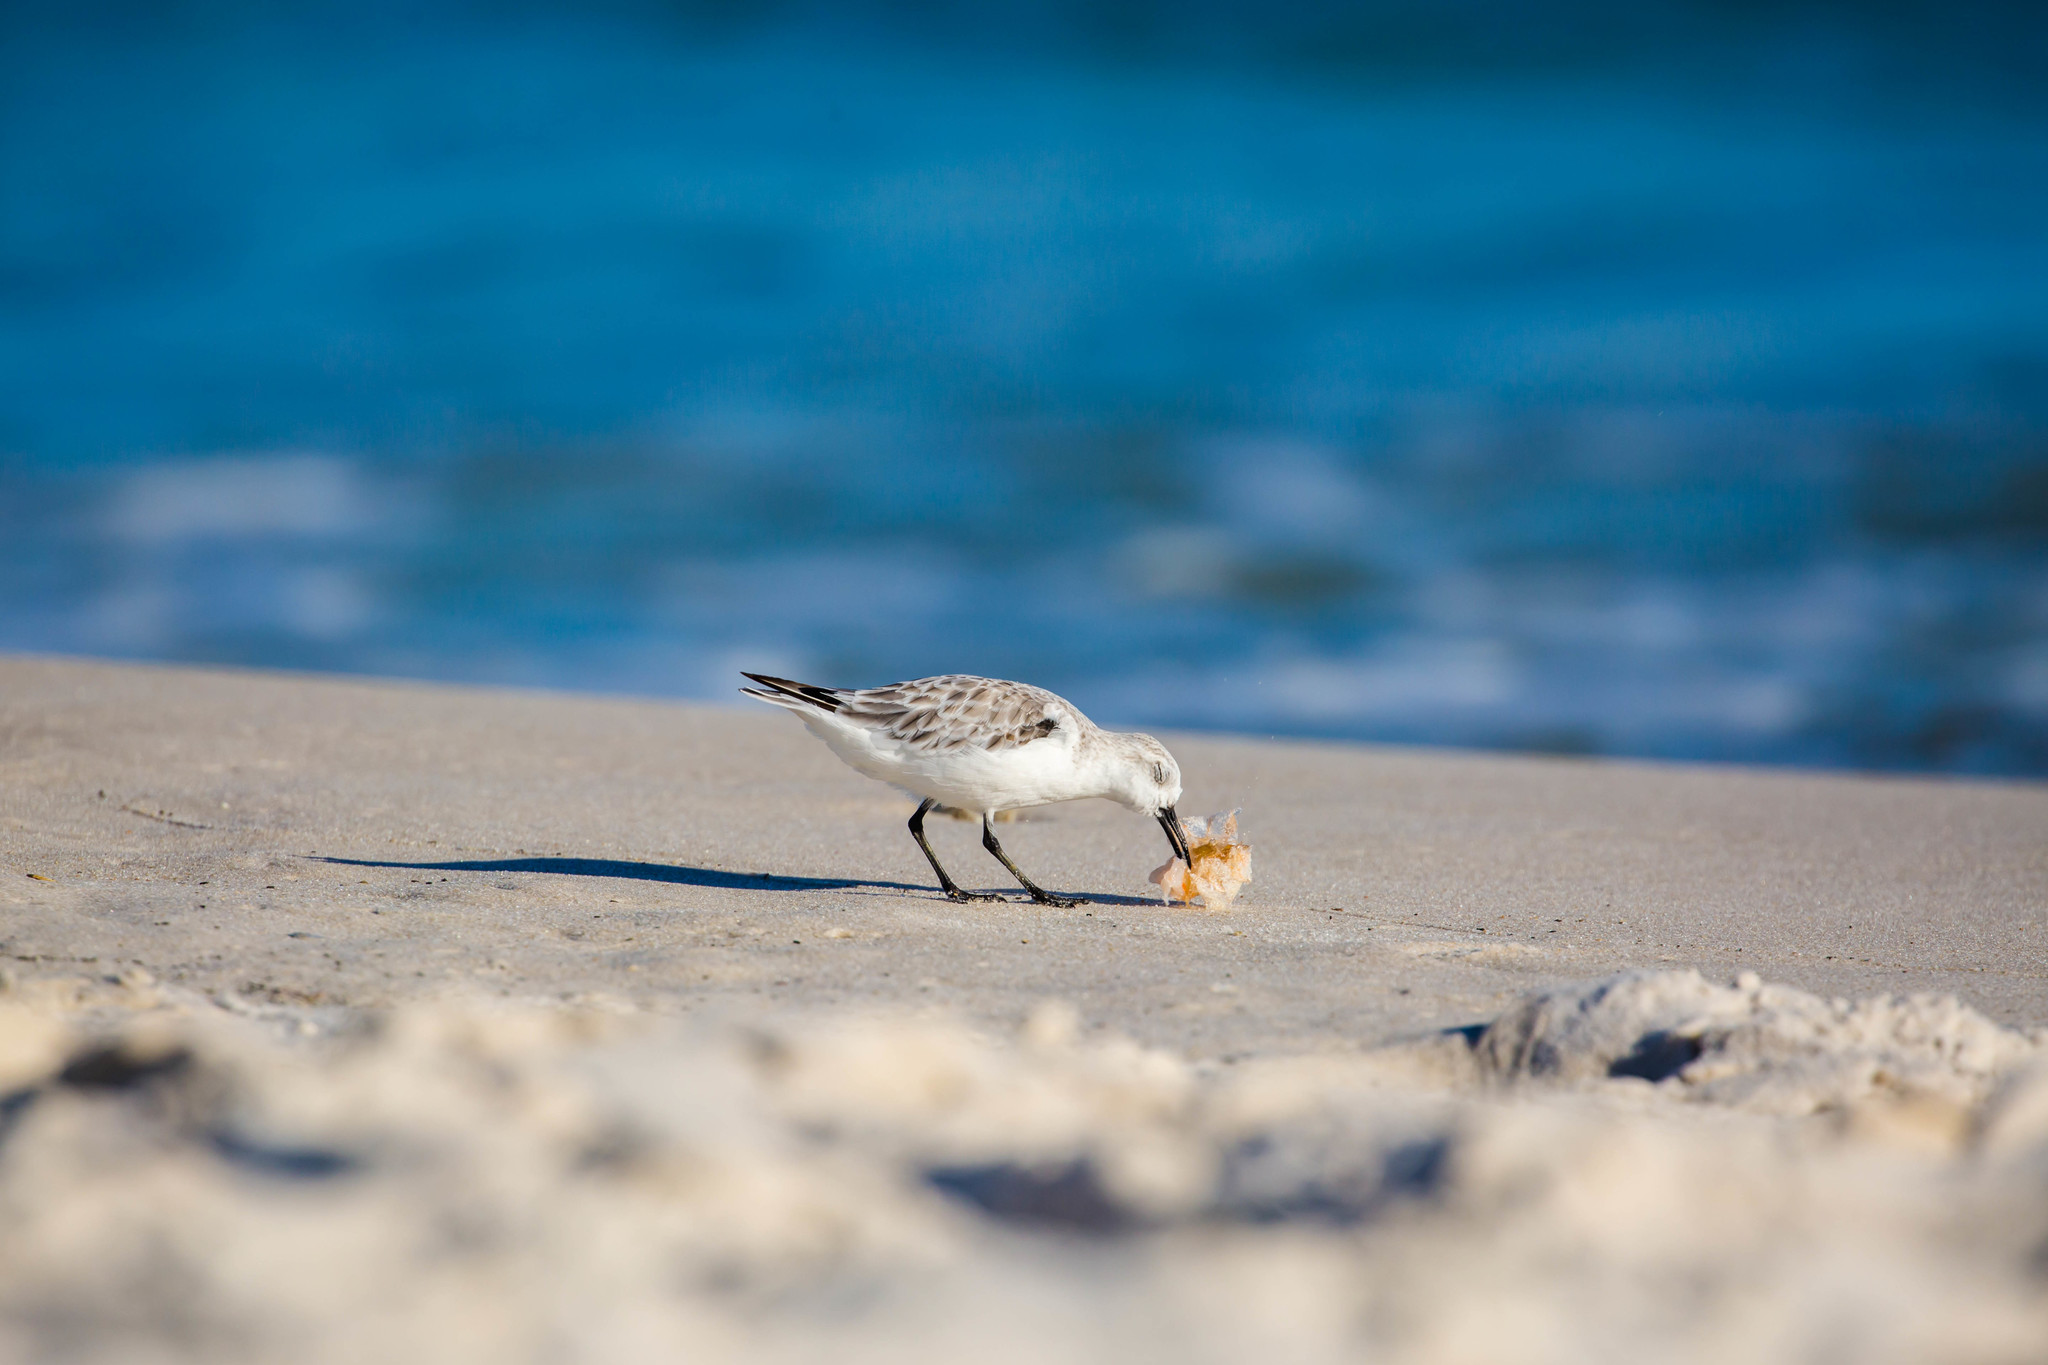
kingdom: Animalia
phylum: Chordata
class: Aves
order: Charadriiformes
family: Scolopacidae
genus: Calidris
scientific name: Calidris alba
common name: Sanderling
